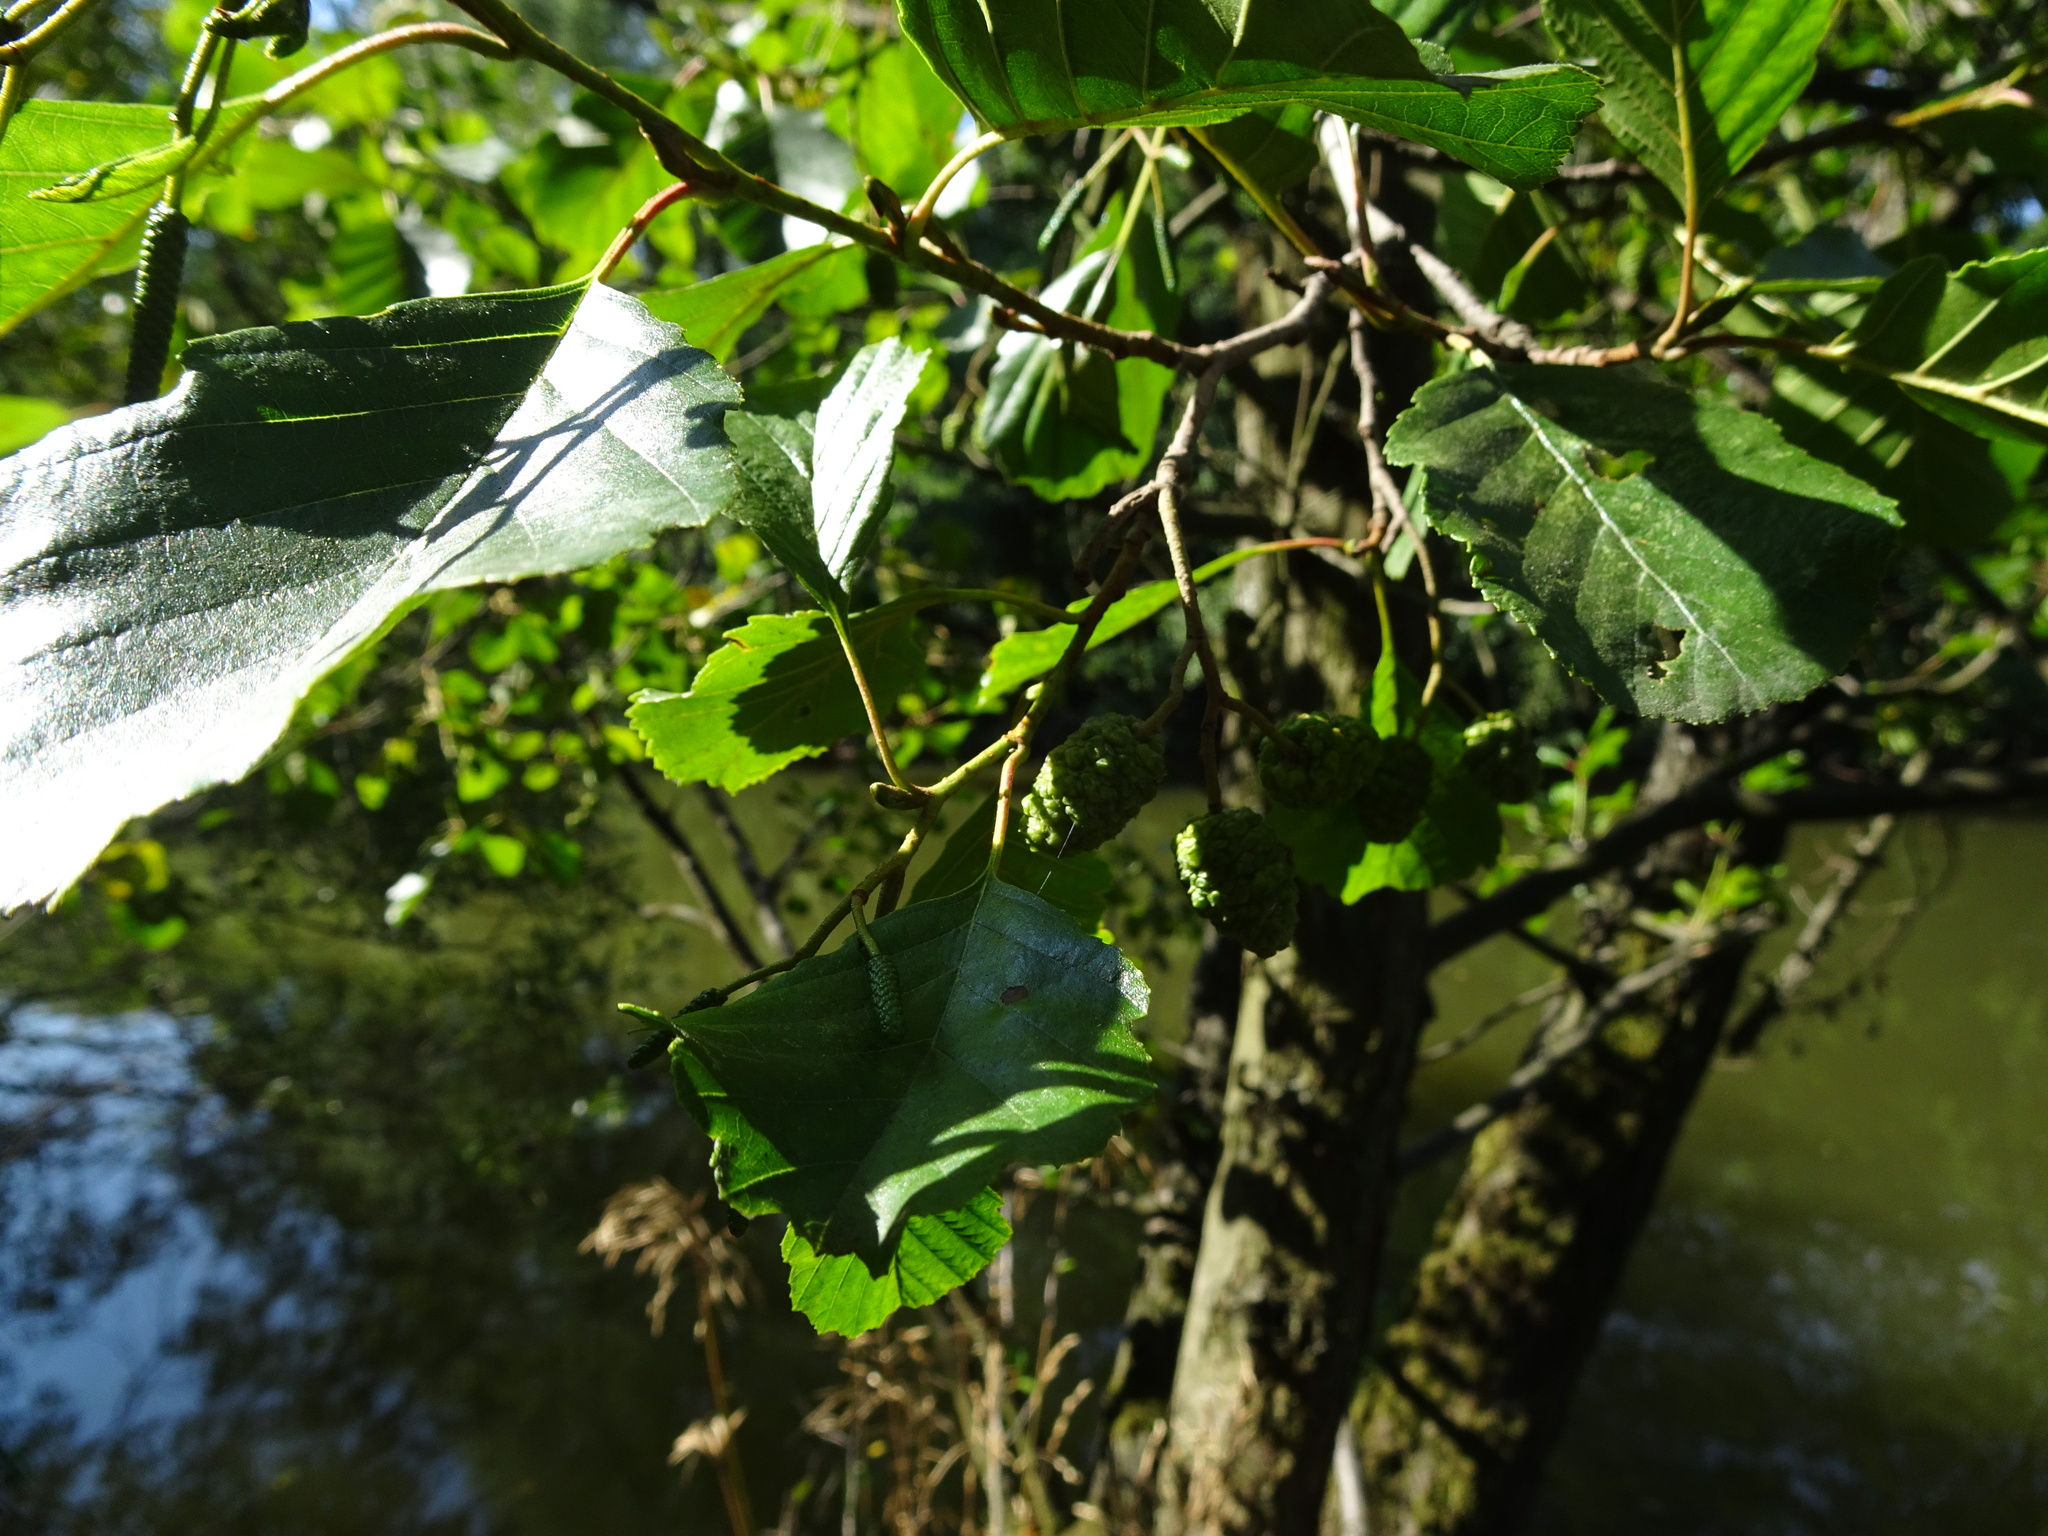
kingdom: Plantae
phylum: Tracheophyta
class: Magnoliopsida
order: Fagales
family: Betulaceae
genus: Alnus
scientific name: Alnus glutinosa
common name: Black alder
